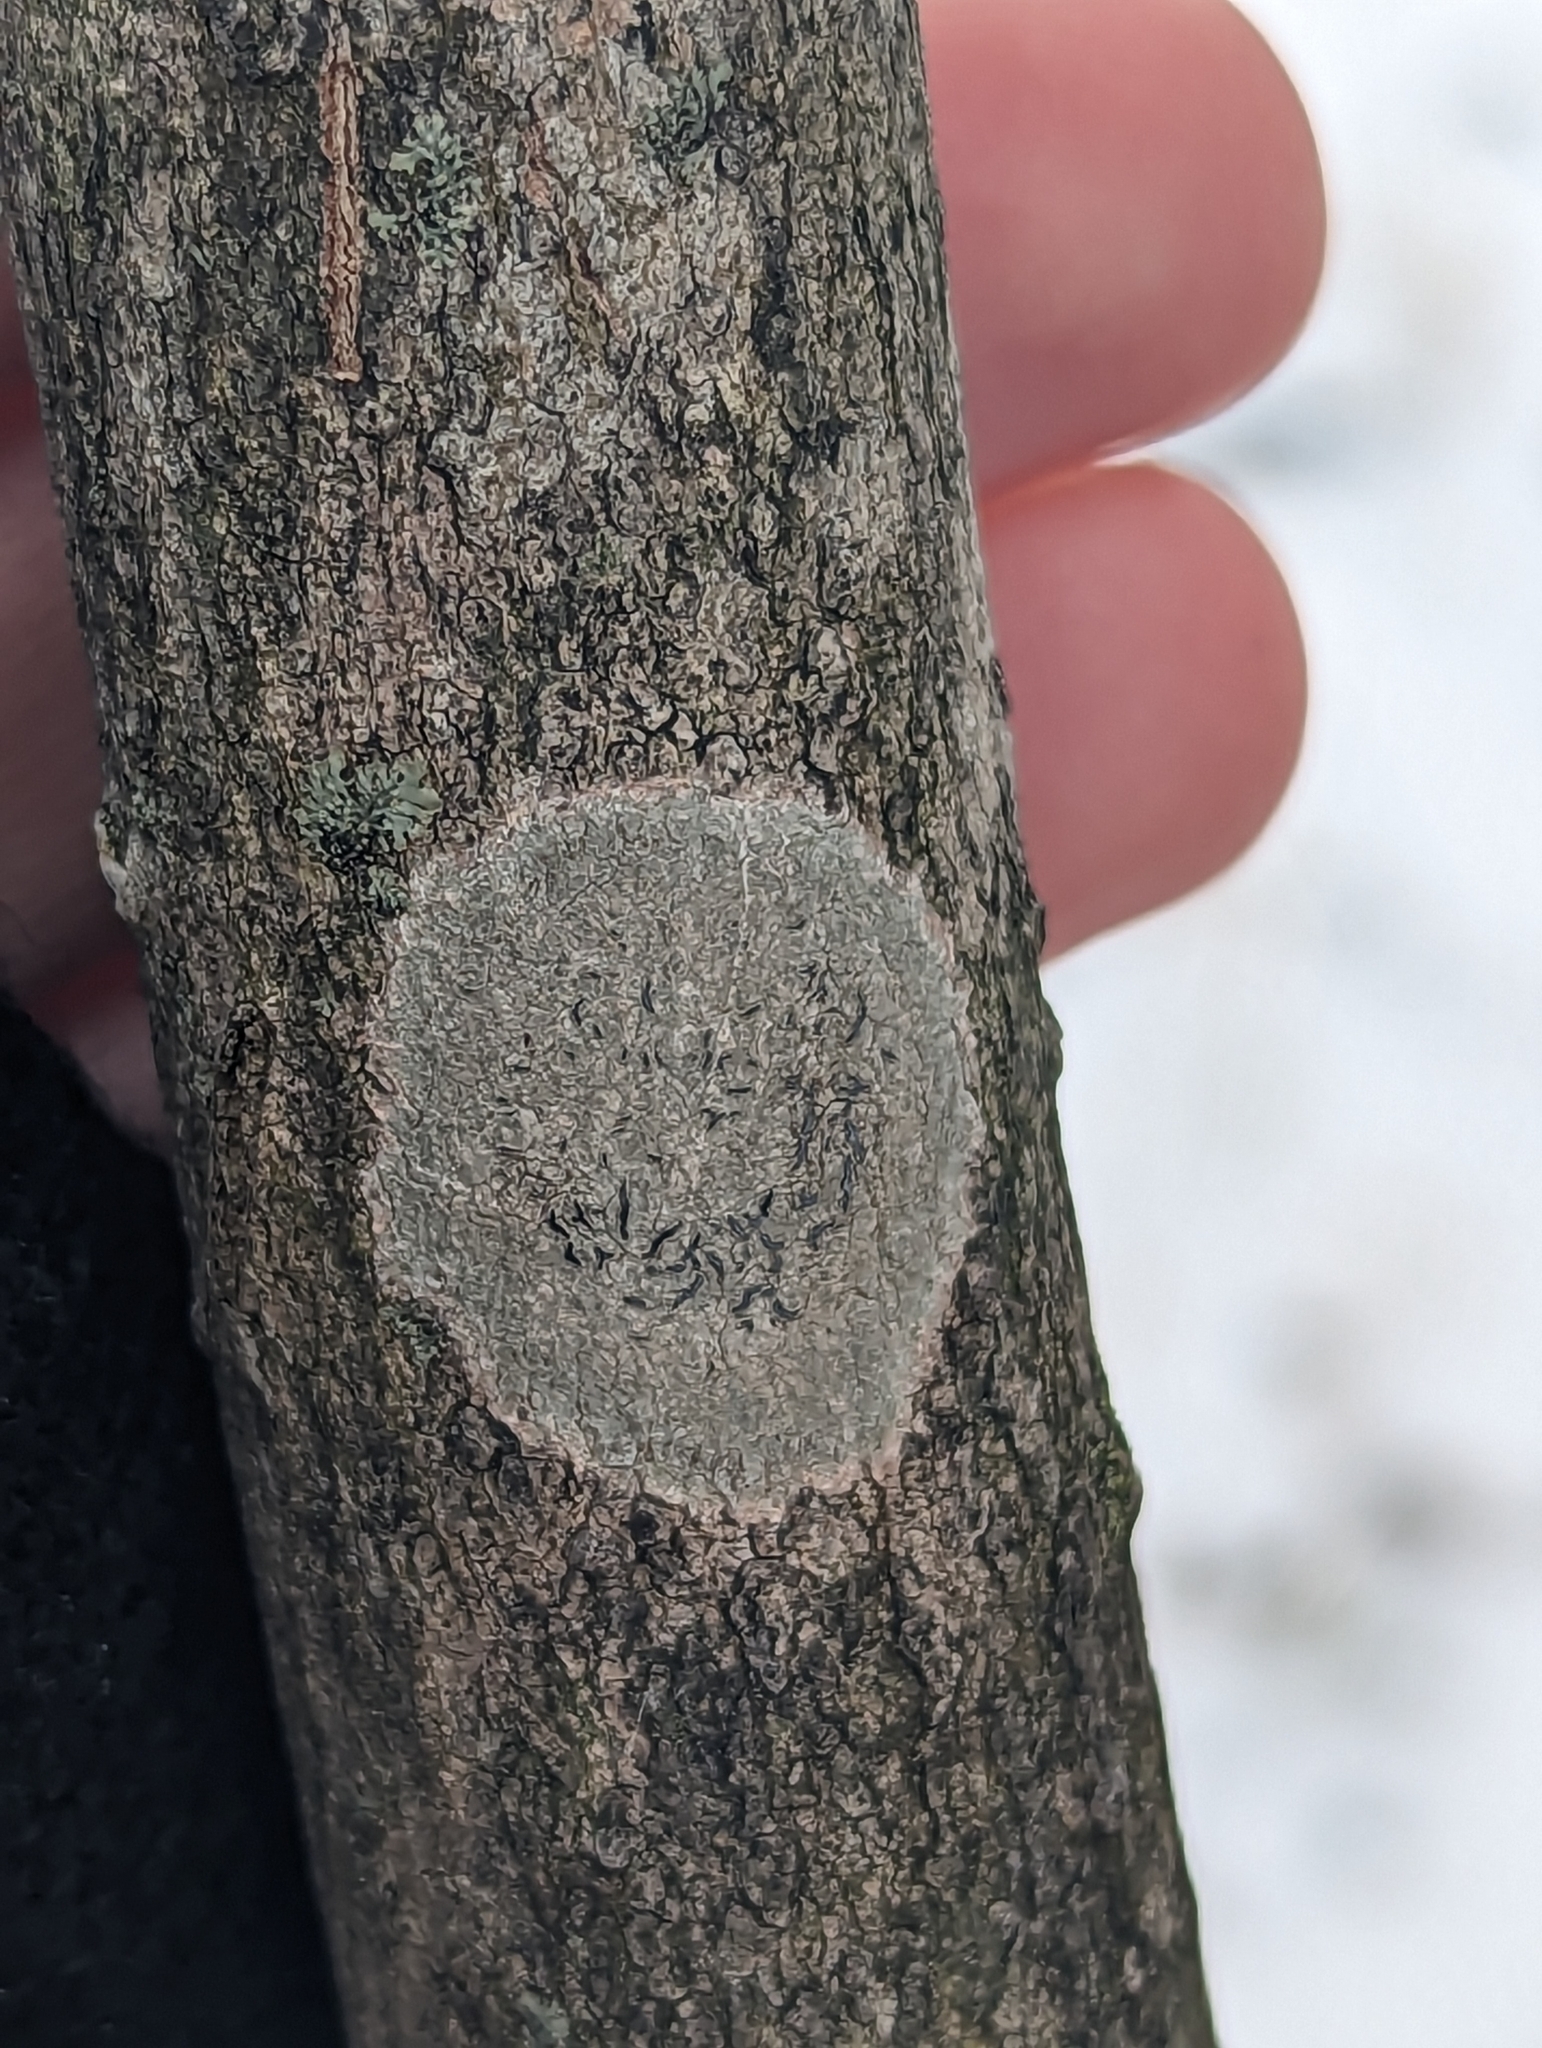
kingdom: Fungi
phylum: Ascomycota
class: Lecanoromycetes
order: Ostropales
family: Graphidaceae
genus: Graphis
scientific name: Graphis scripta
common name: Script lichen
